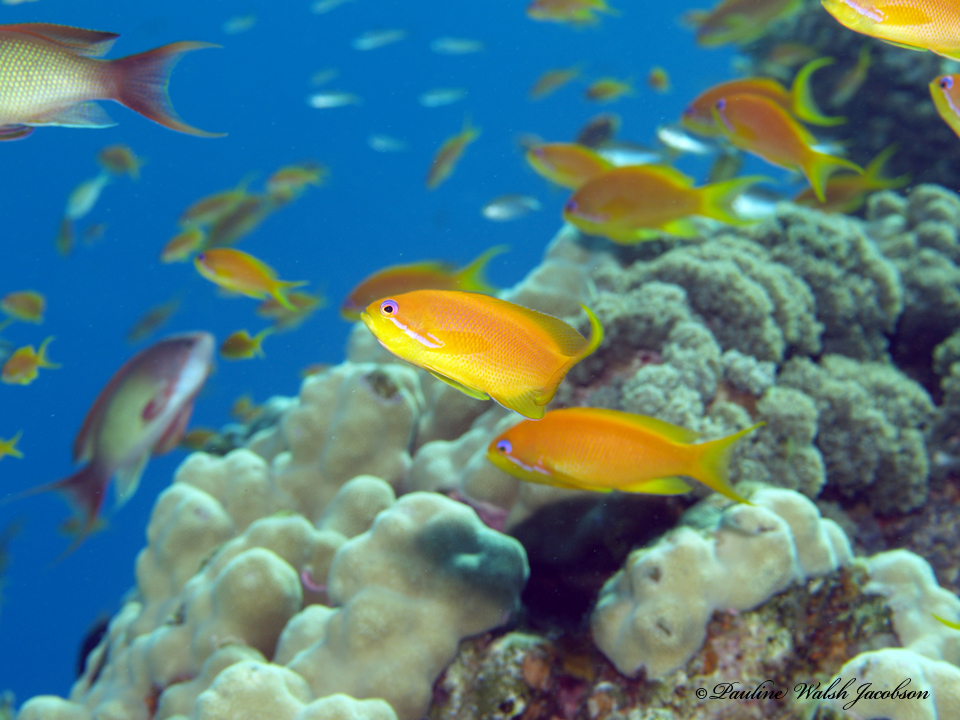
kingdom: Animalia
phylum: Chordata
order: Perciformes
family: Serranidae
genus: Pseudanthias
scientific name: Pseudanthias squamipinnis
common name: Scalefin anthias
